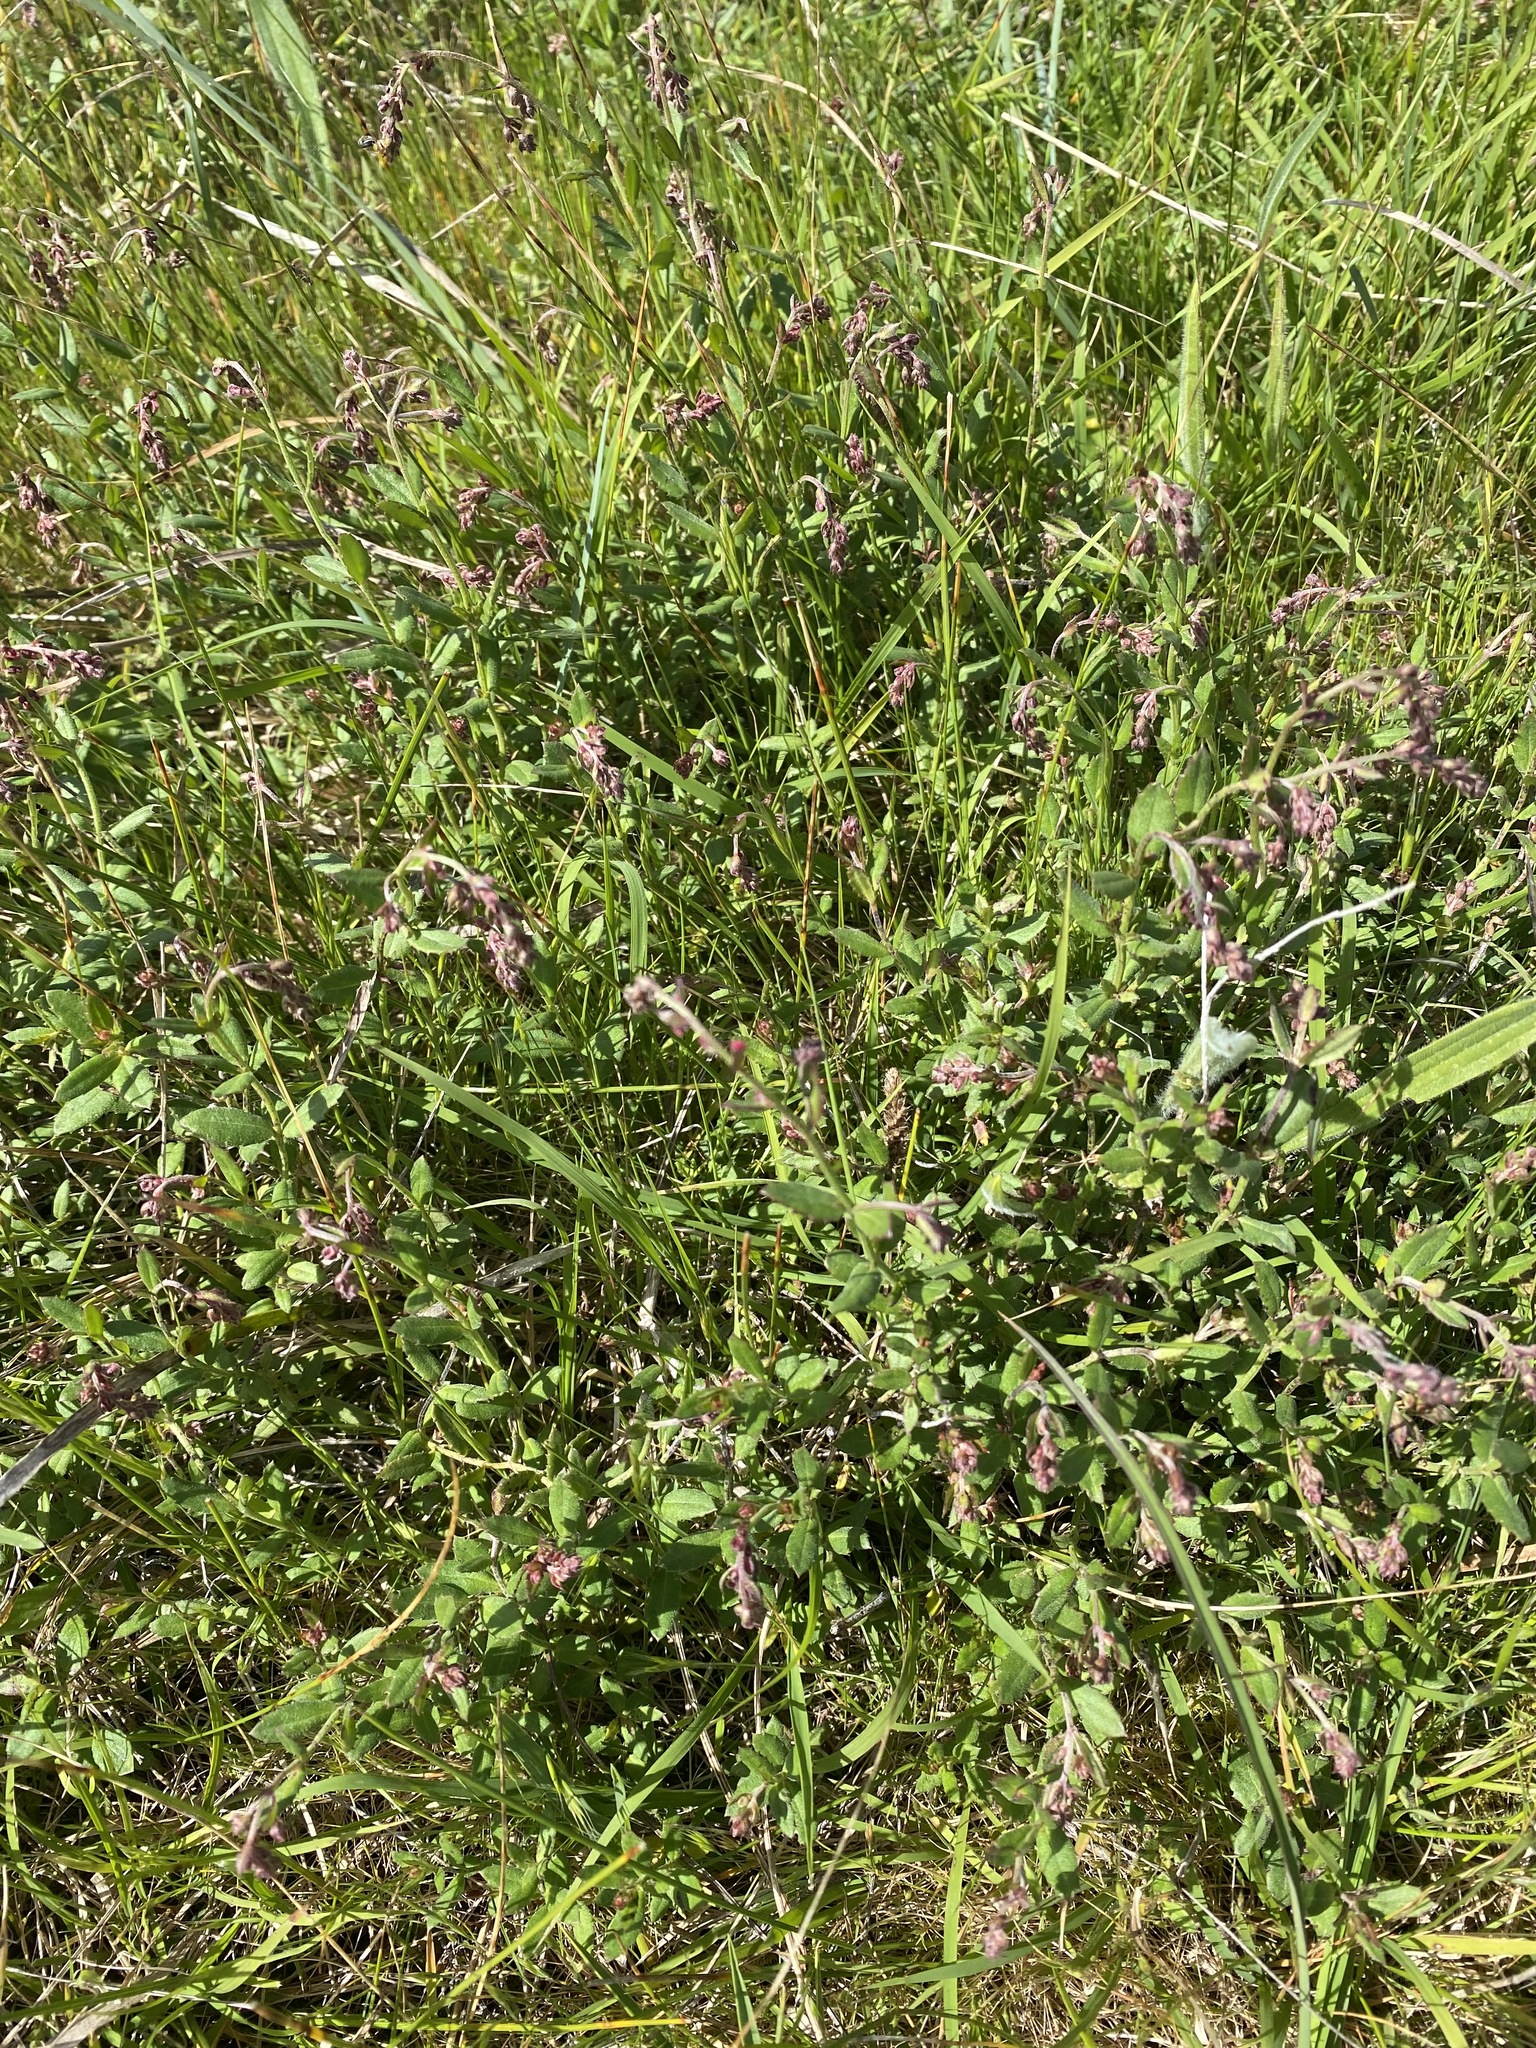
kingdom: Plantae
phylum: Tracheophyta
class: Magnoliopsida
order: Saxifragales
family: Haloragaceae
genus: Gonocarpus
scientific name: Gonocarpus tetragynus
